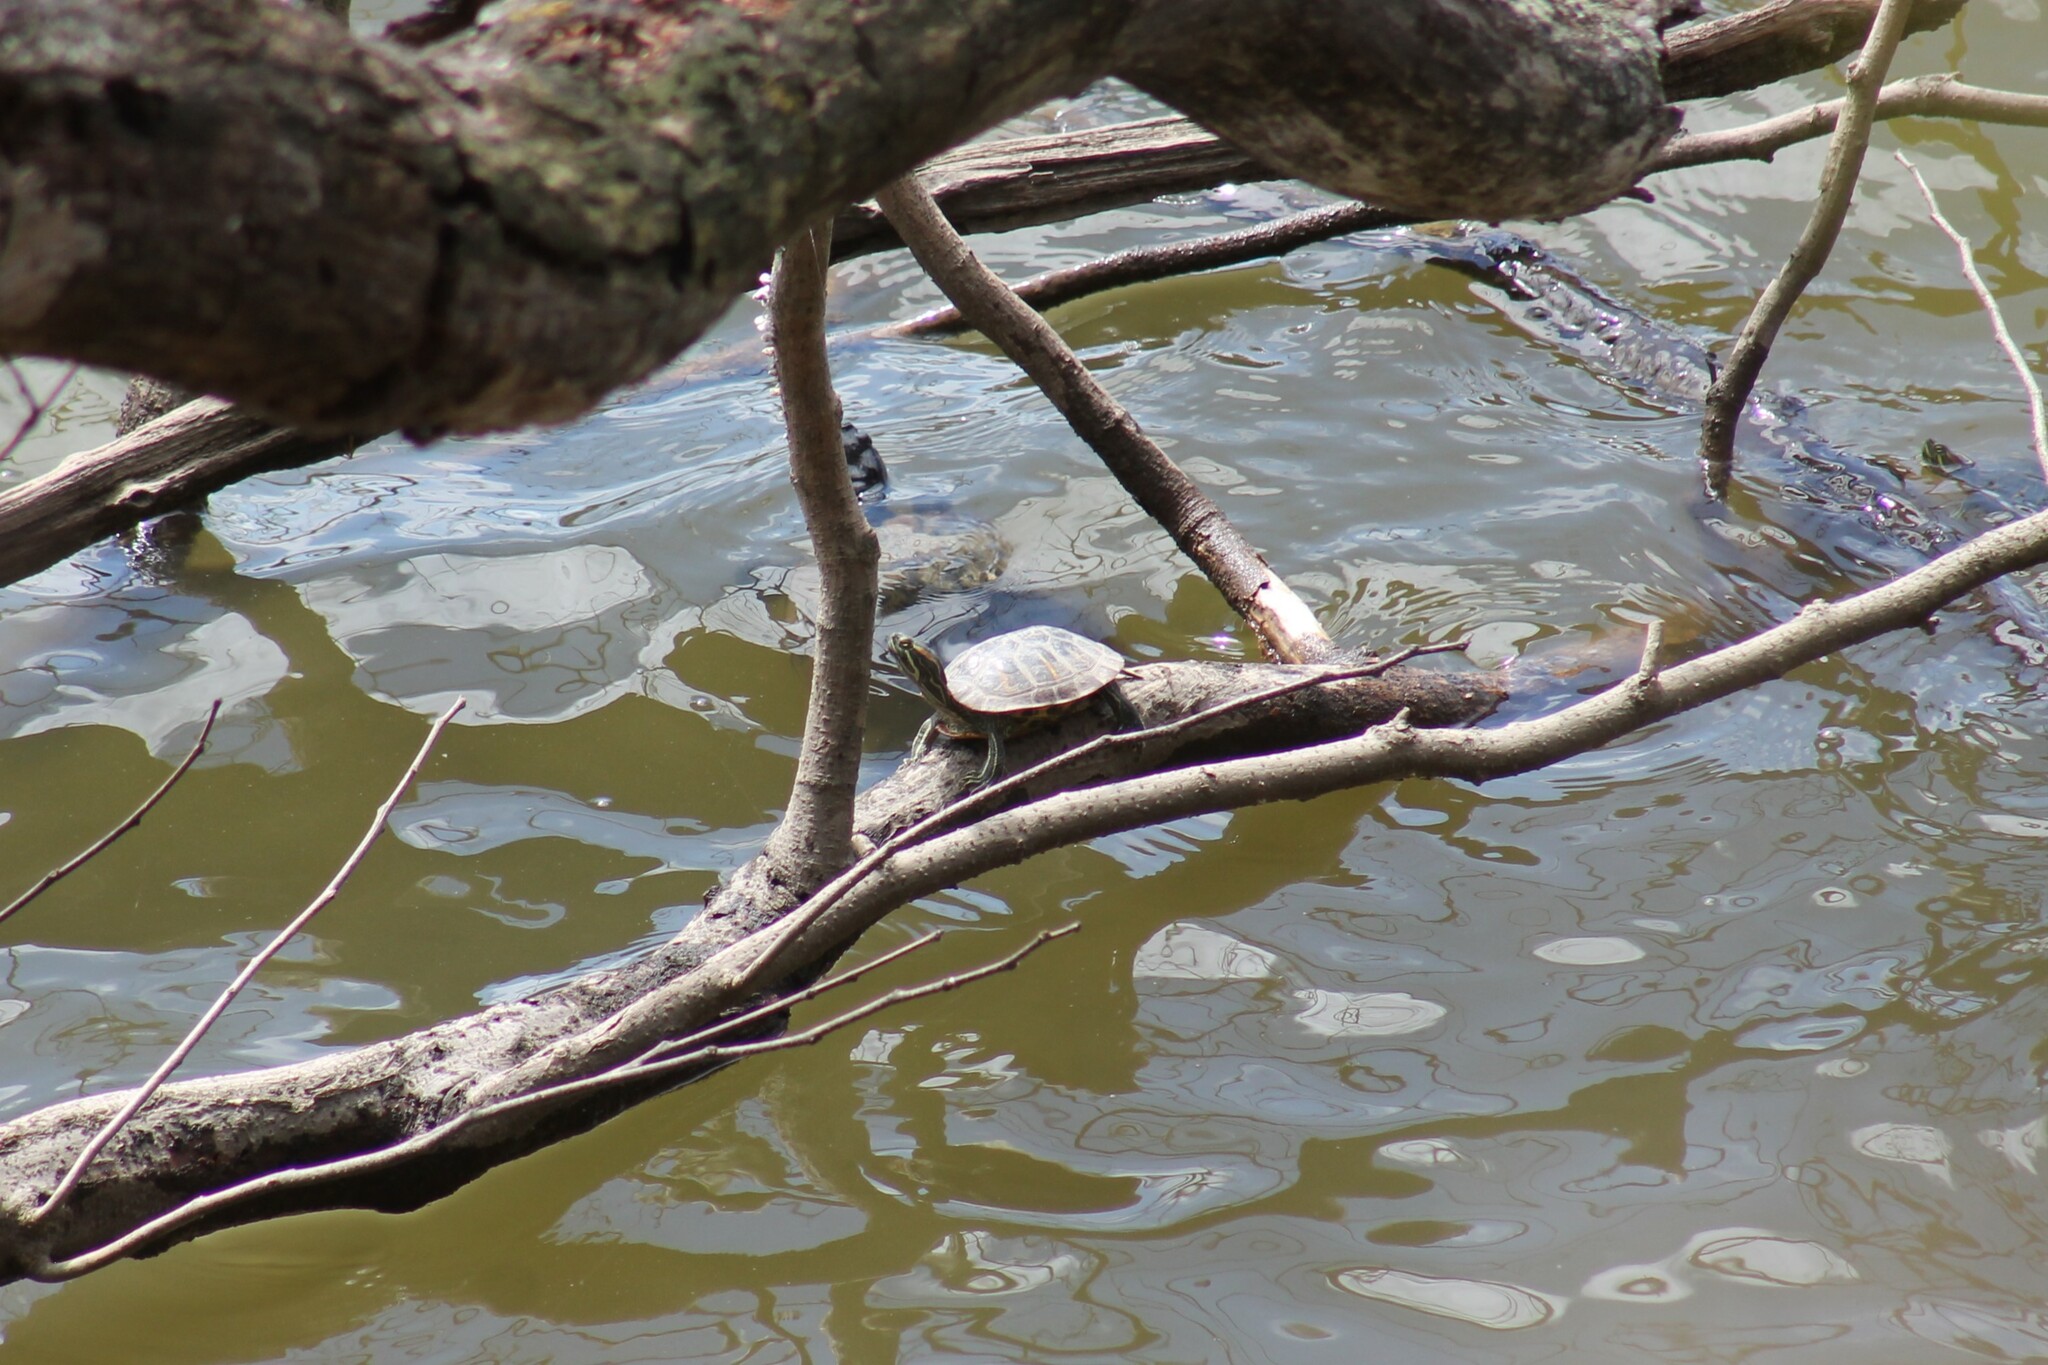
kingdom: Animalia
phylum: Chordata
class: Testudines
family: Emydidae
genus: Trachemys
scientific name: Trachemys scripta
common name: Slider
